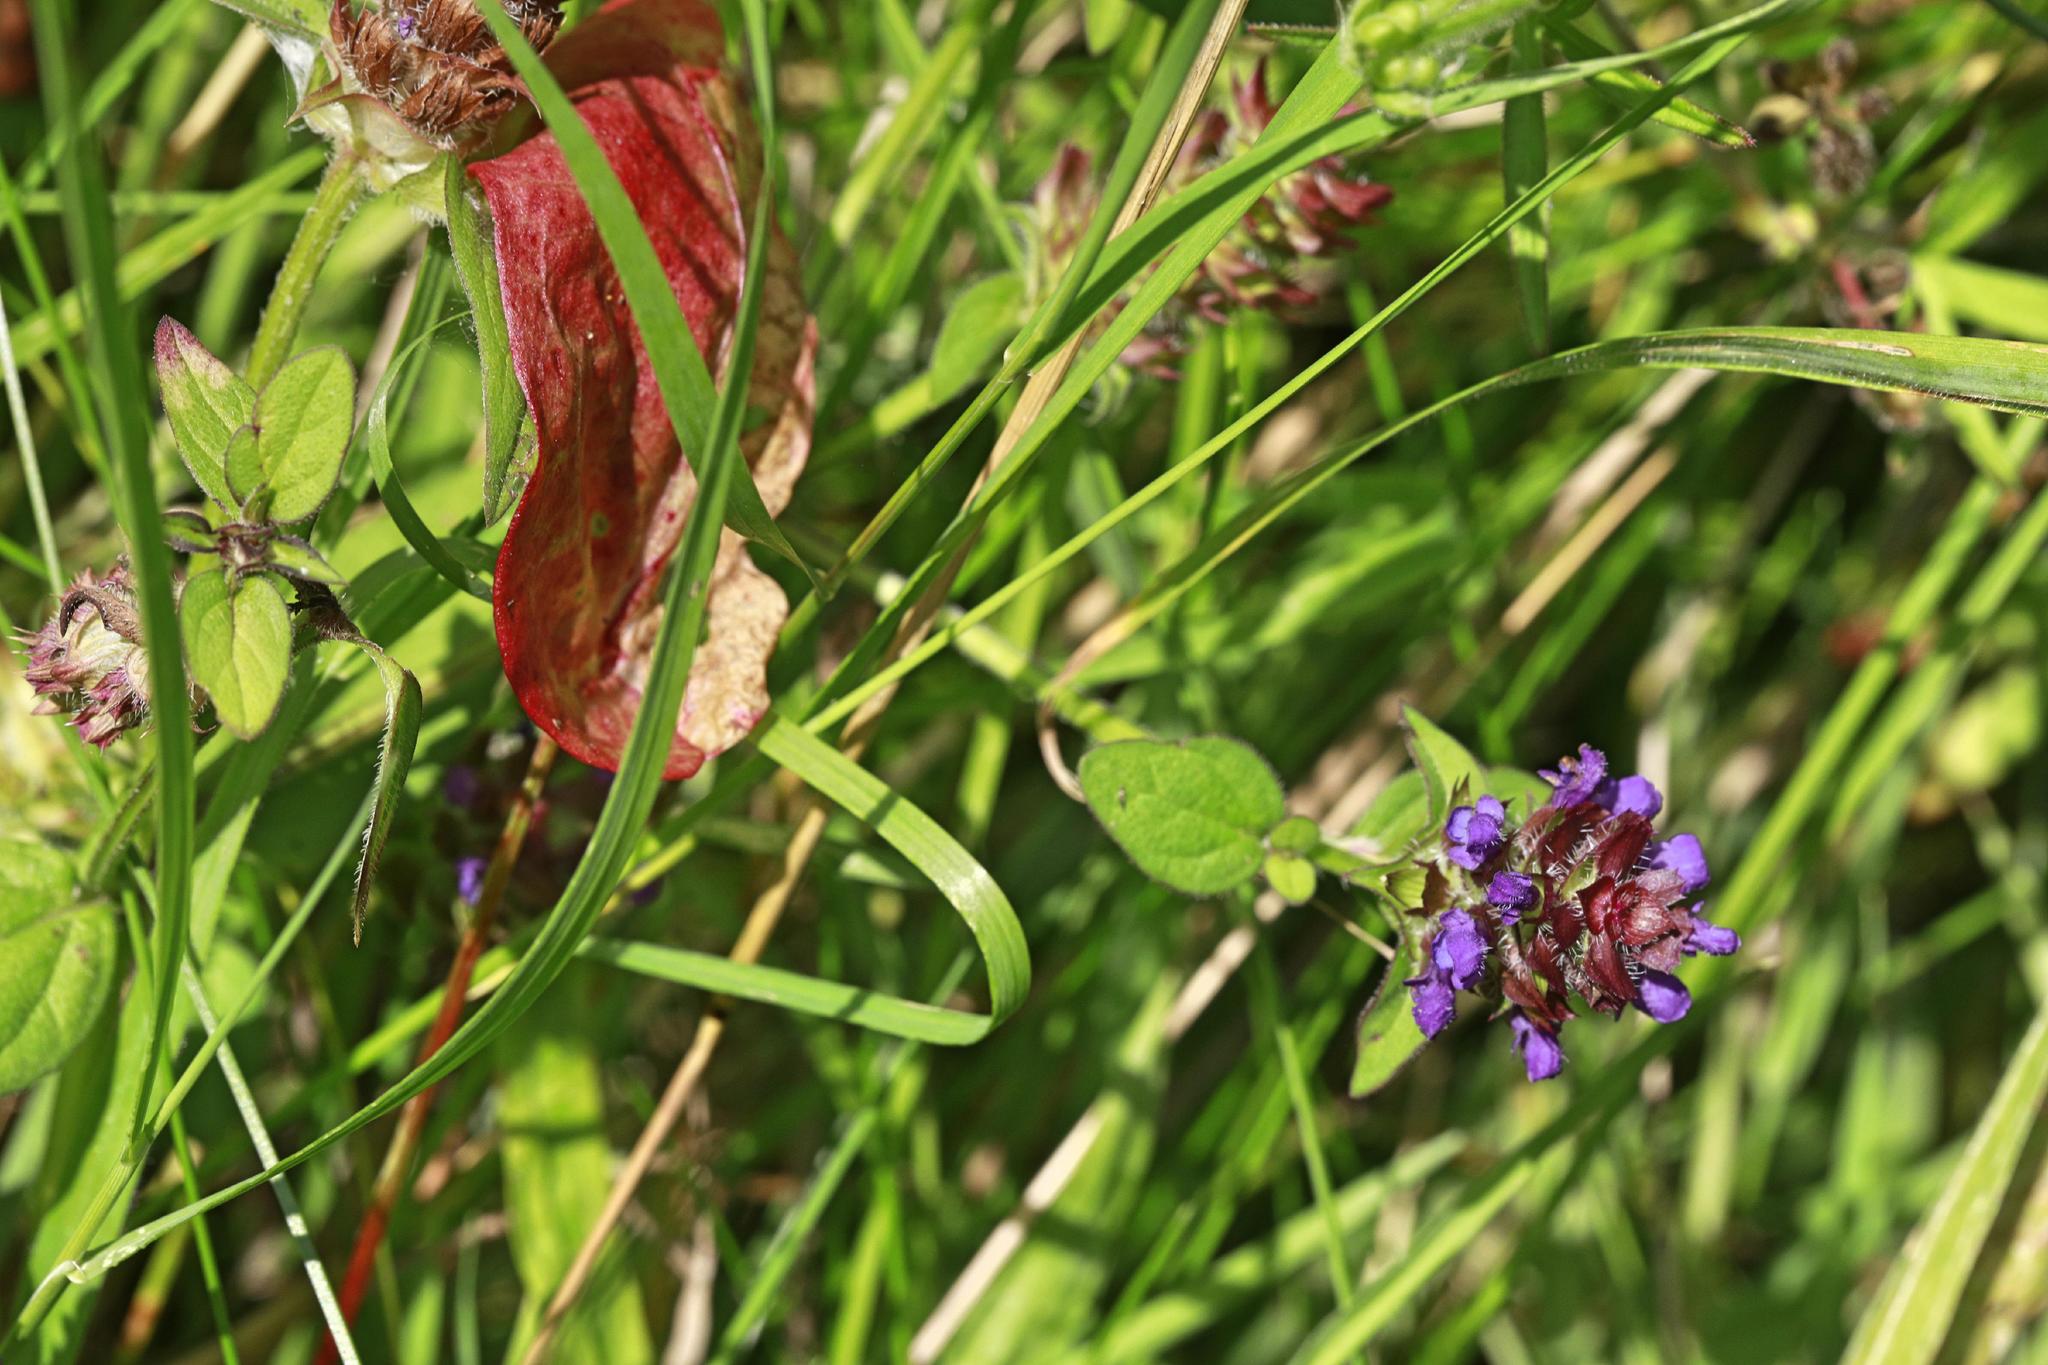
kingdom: Plantae
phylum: Tracheophyta
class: Magnoliopsida
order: Lamiales
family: Lamiaceae
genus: Prunella
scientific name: Prunella vulgaris
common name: Heal-all
